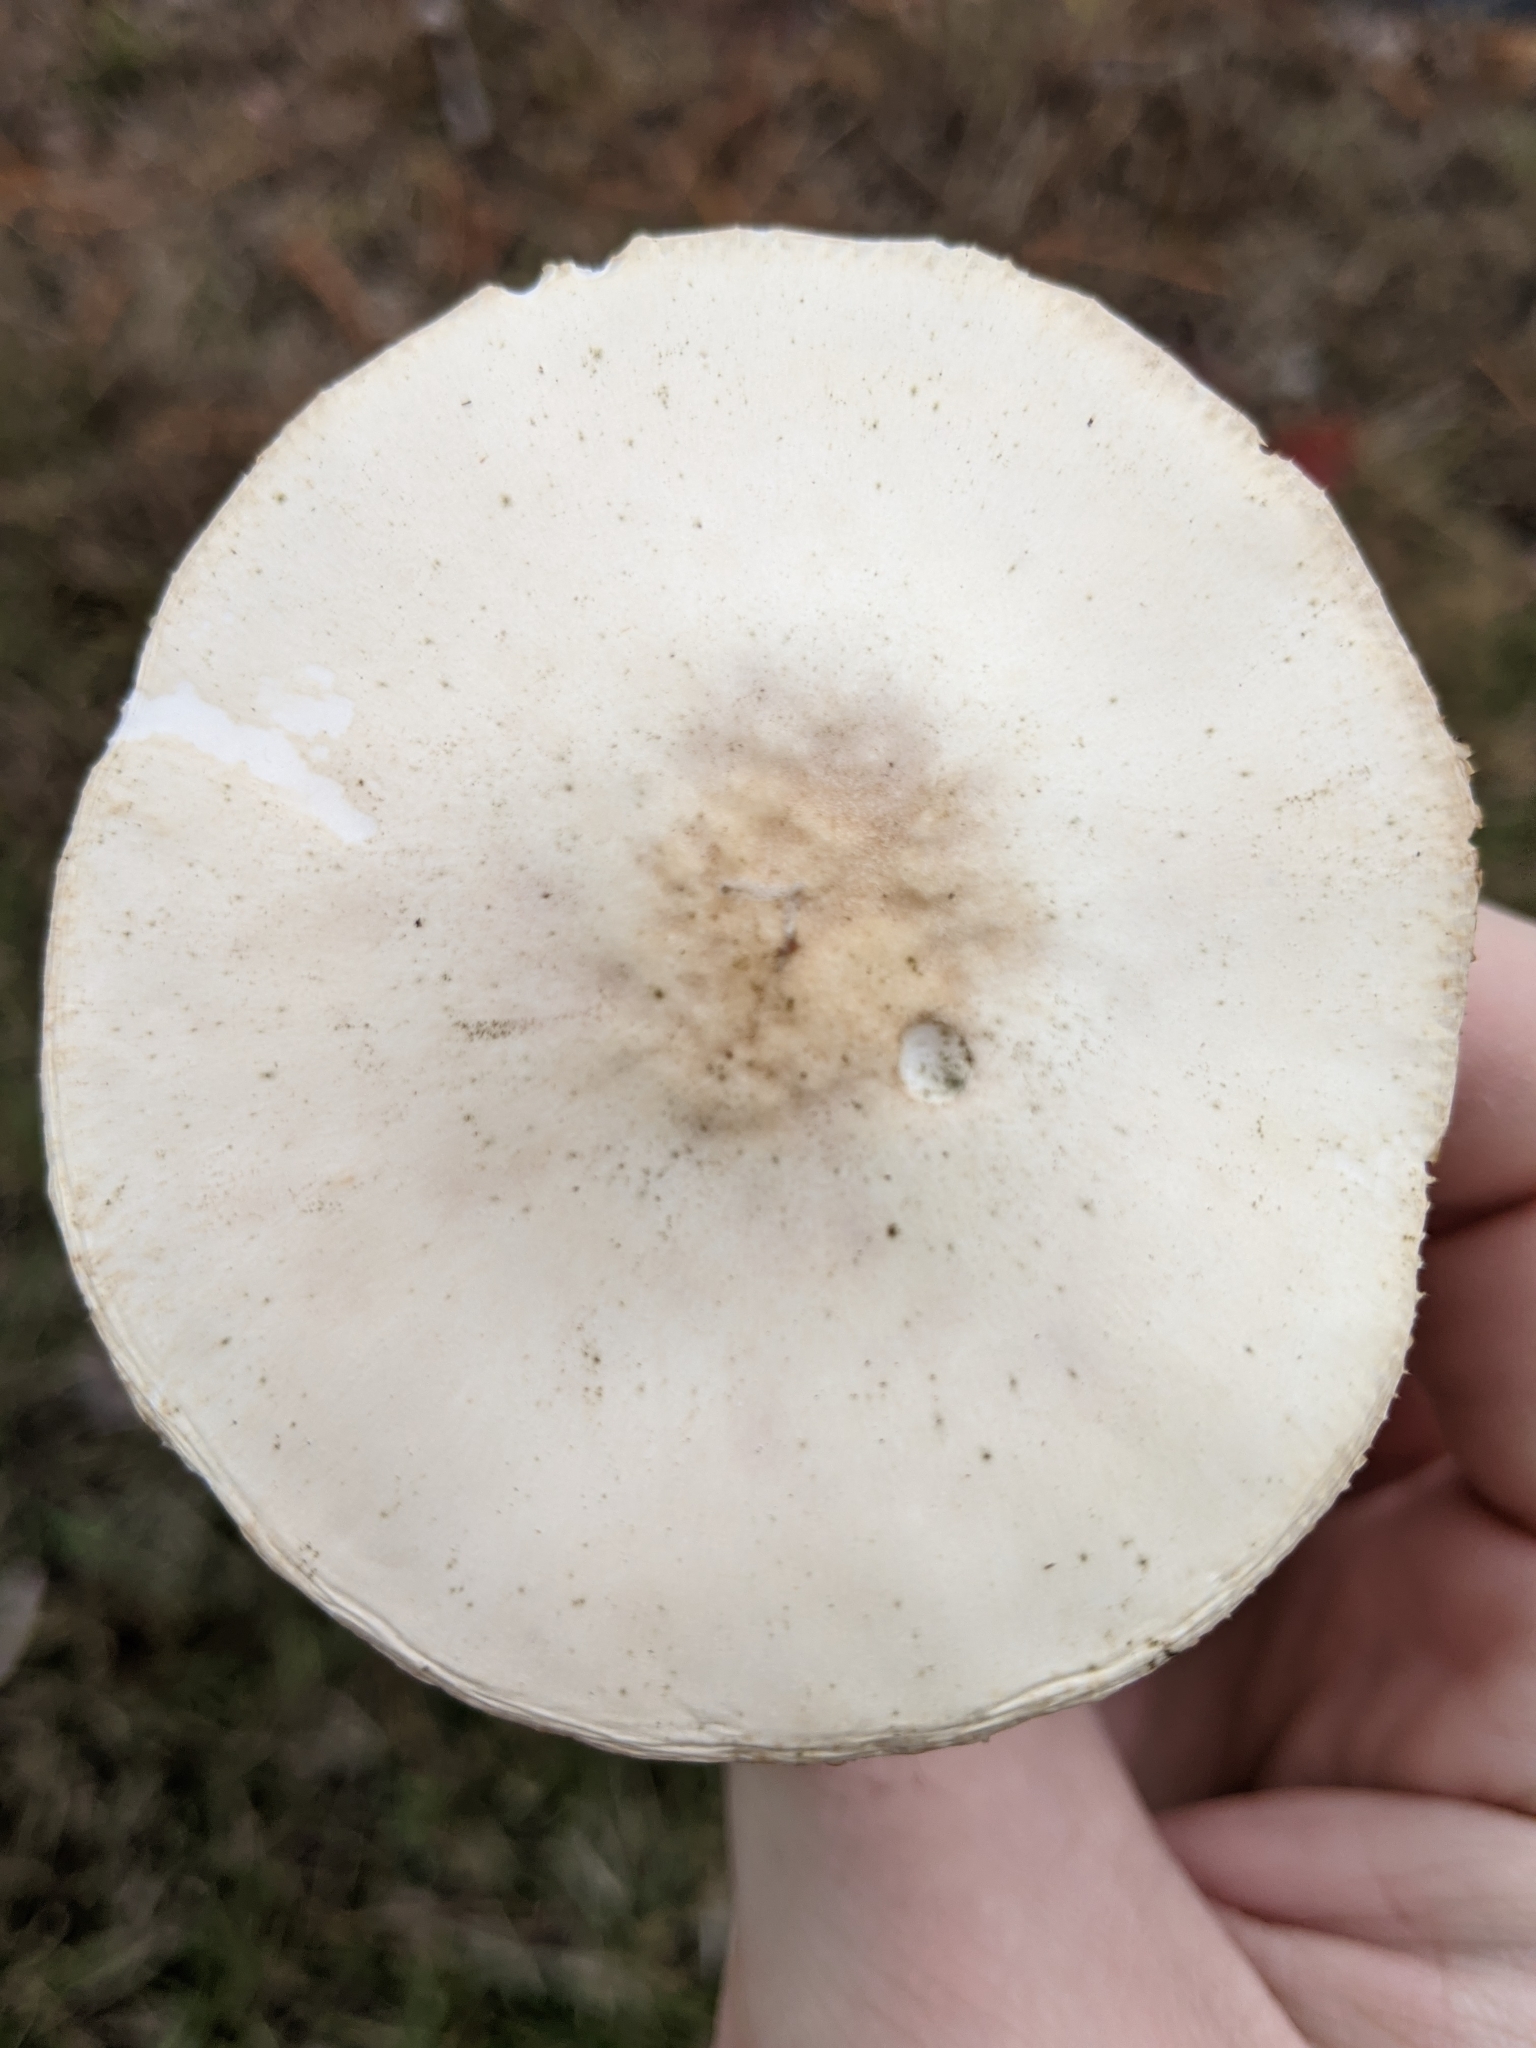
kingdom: Fungi
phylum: Basidiomycota
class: Agaricomycetes
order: Agaricales
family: Agaricaceae
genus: Leucoagaricus
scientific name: Leucoagaricus leucothites
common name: White dapperling
